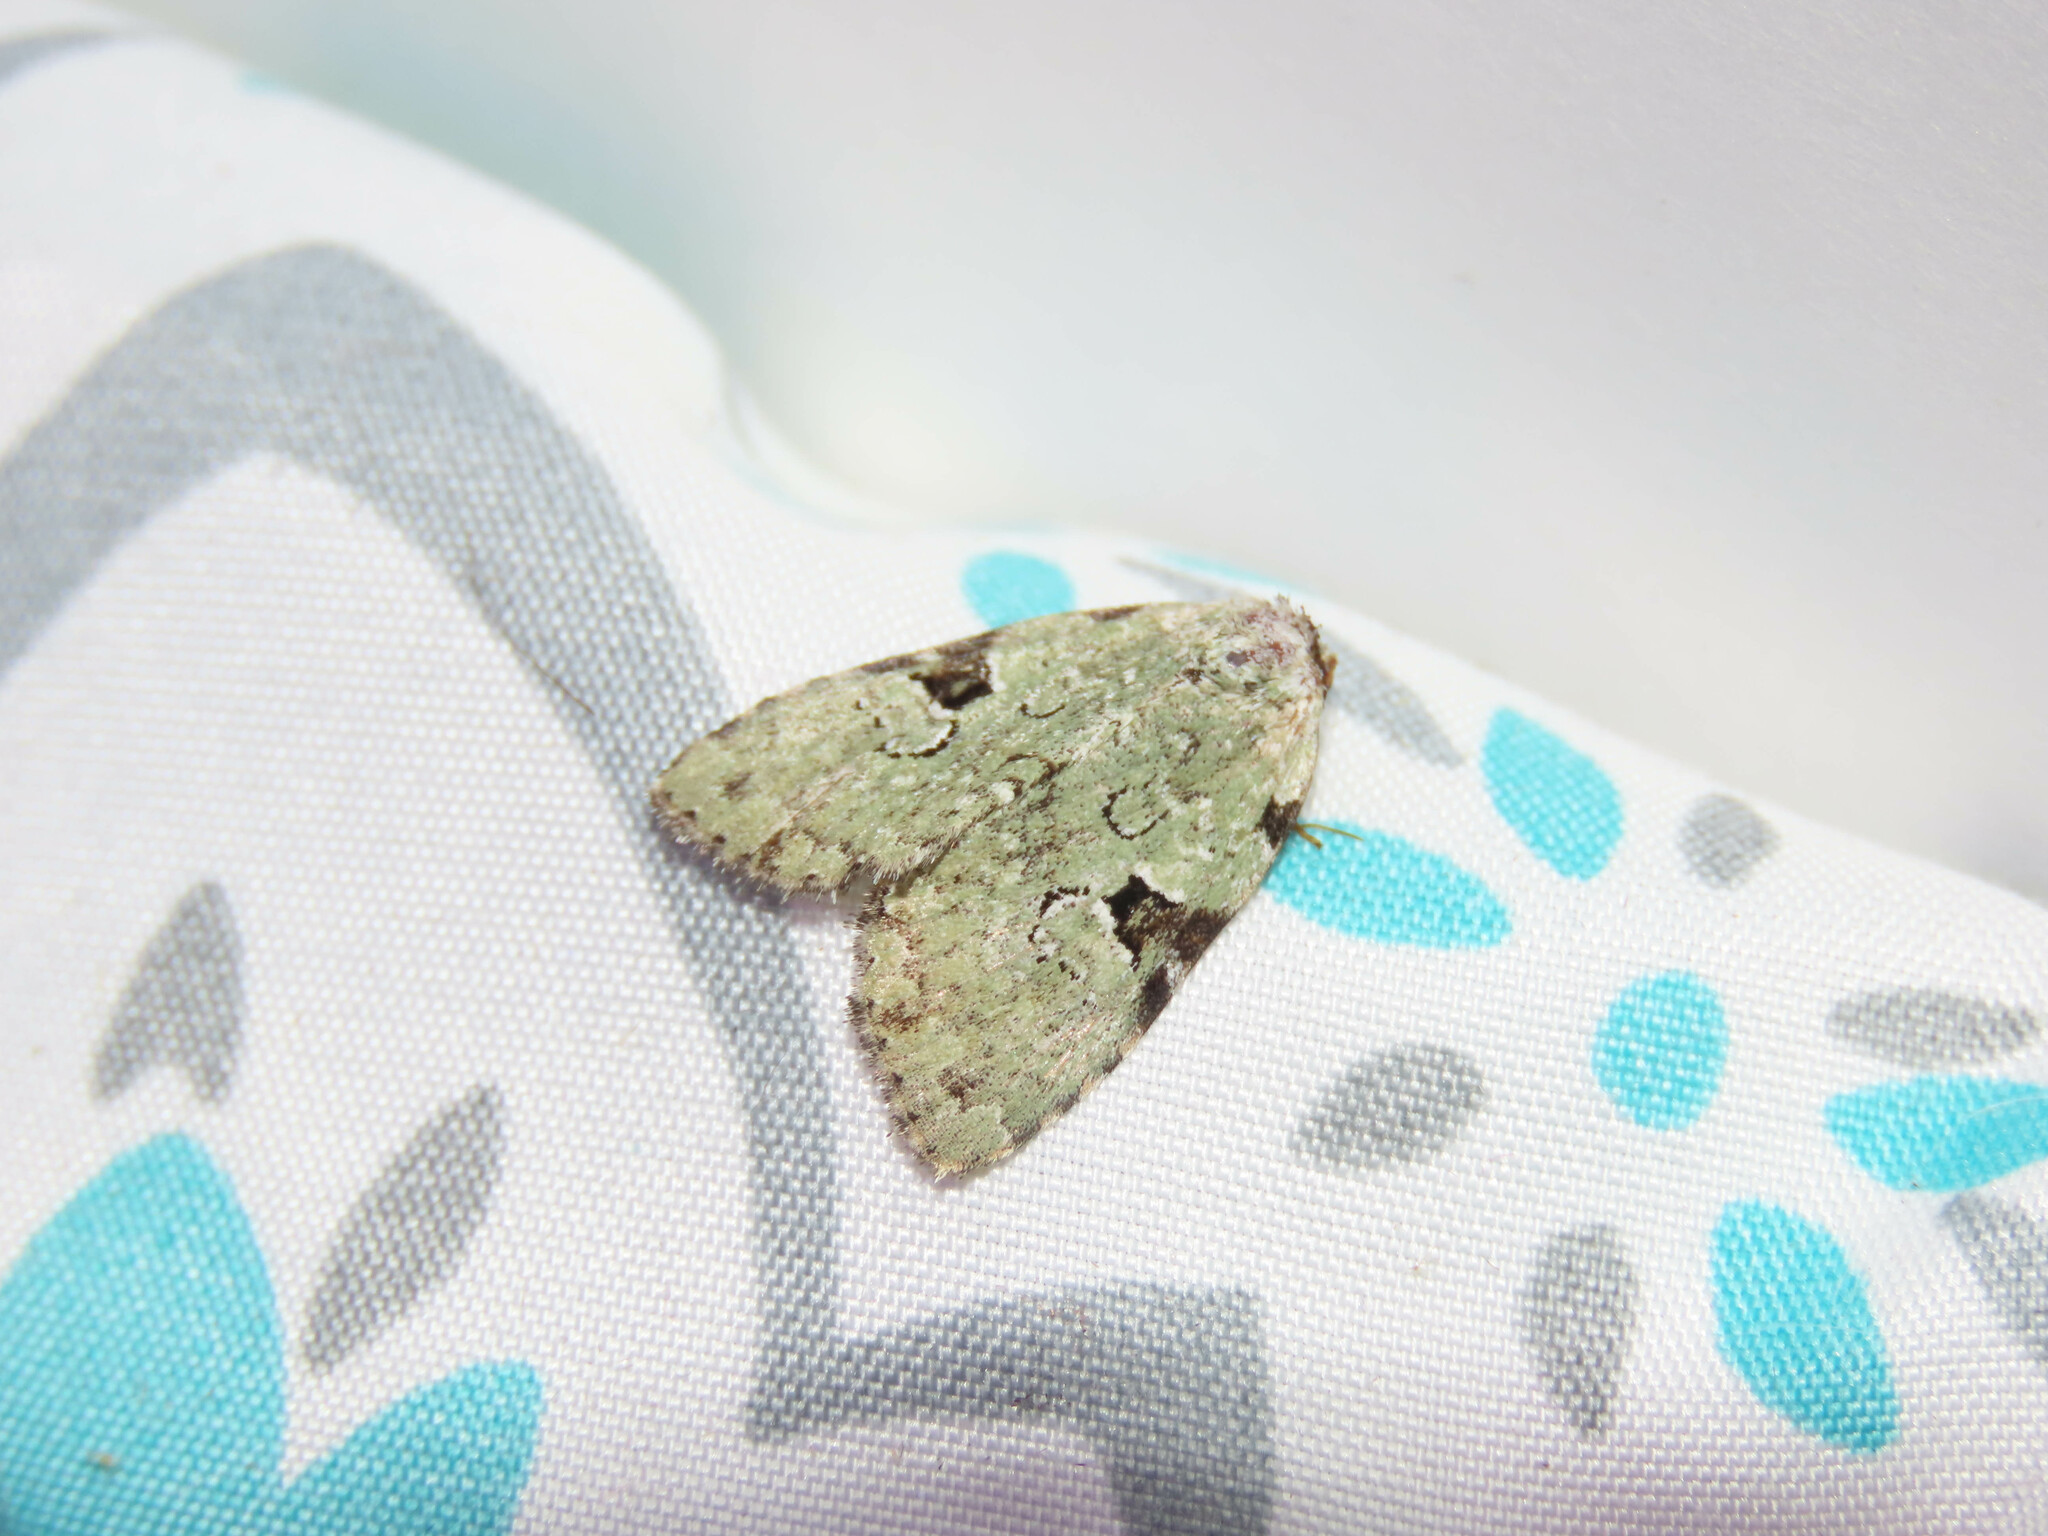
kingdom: Animalia
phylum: Arthropoda
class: Insecta
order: Lepidoptera
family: Noctuidae
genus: Leuconycta
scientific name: Leuconycta diphteroides
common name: Green leuconycta moth
